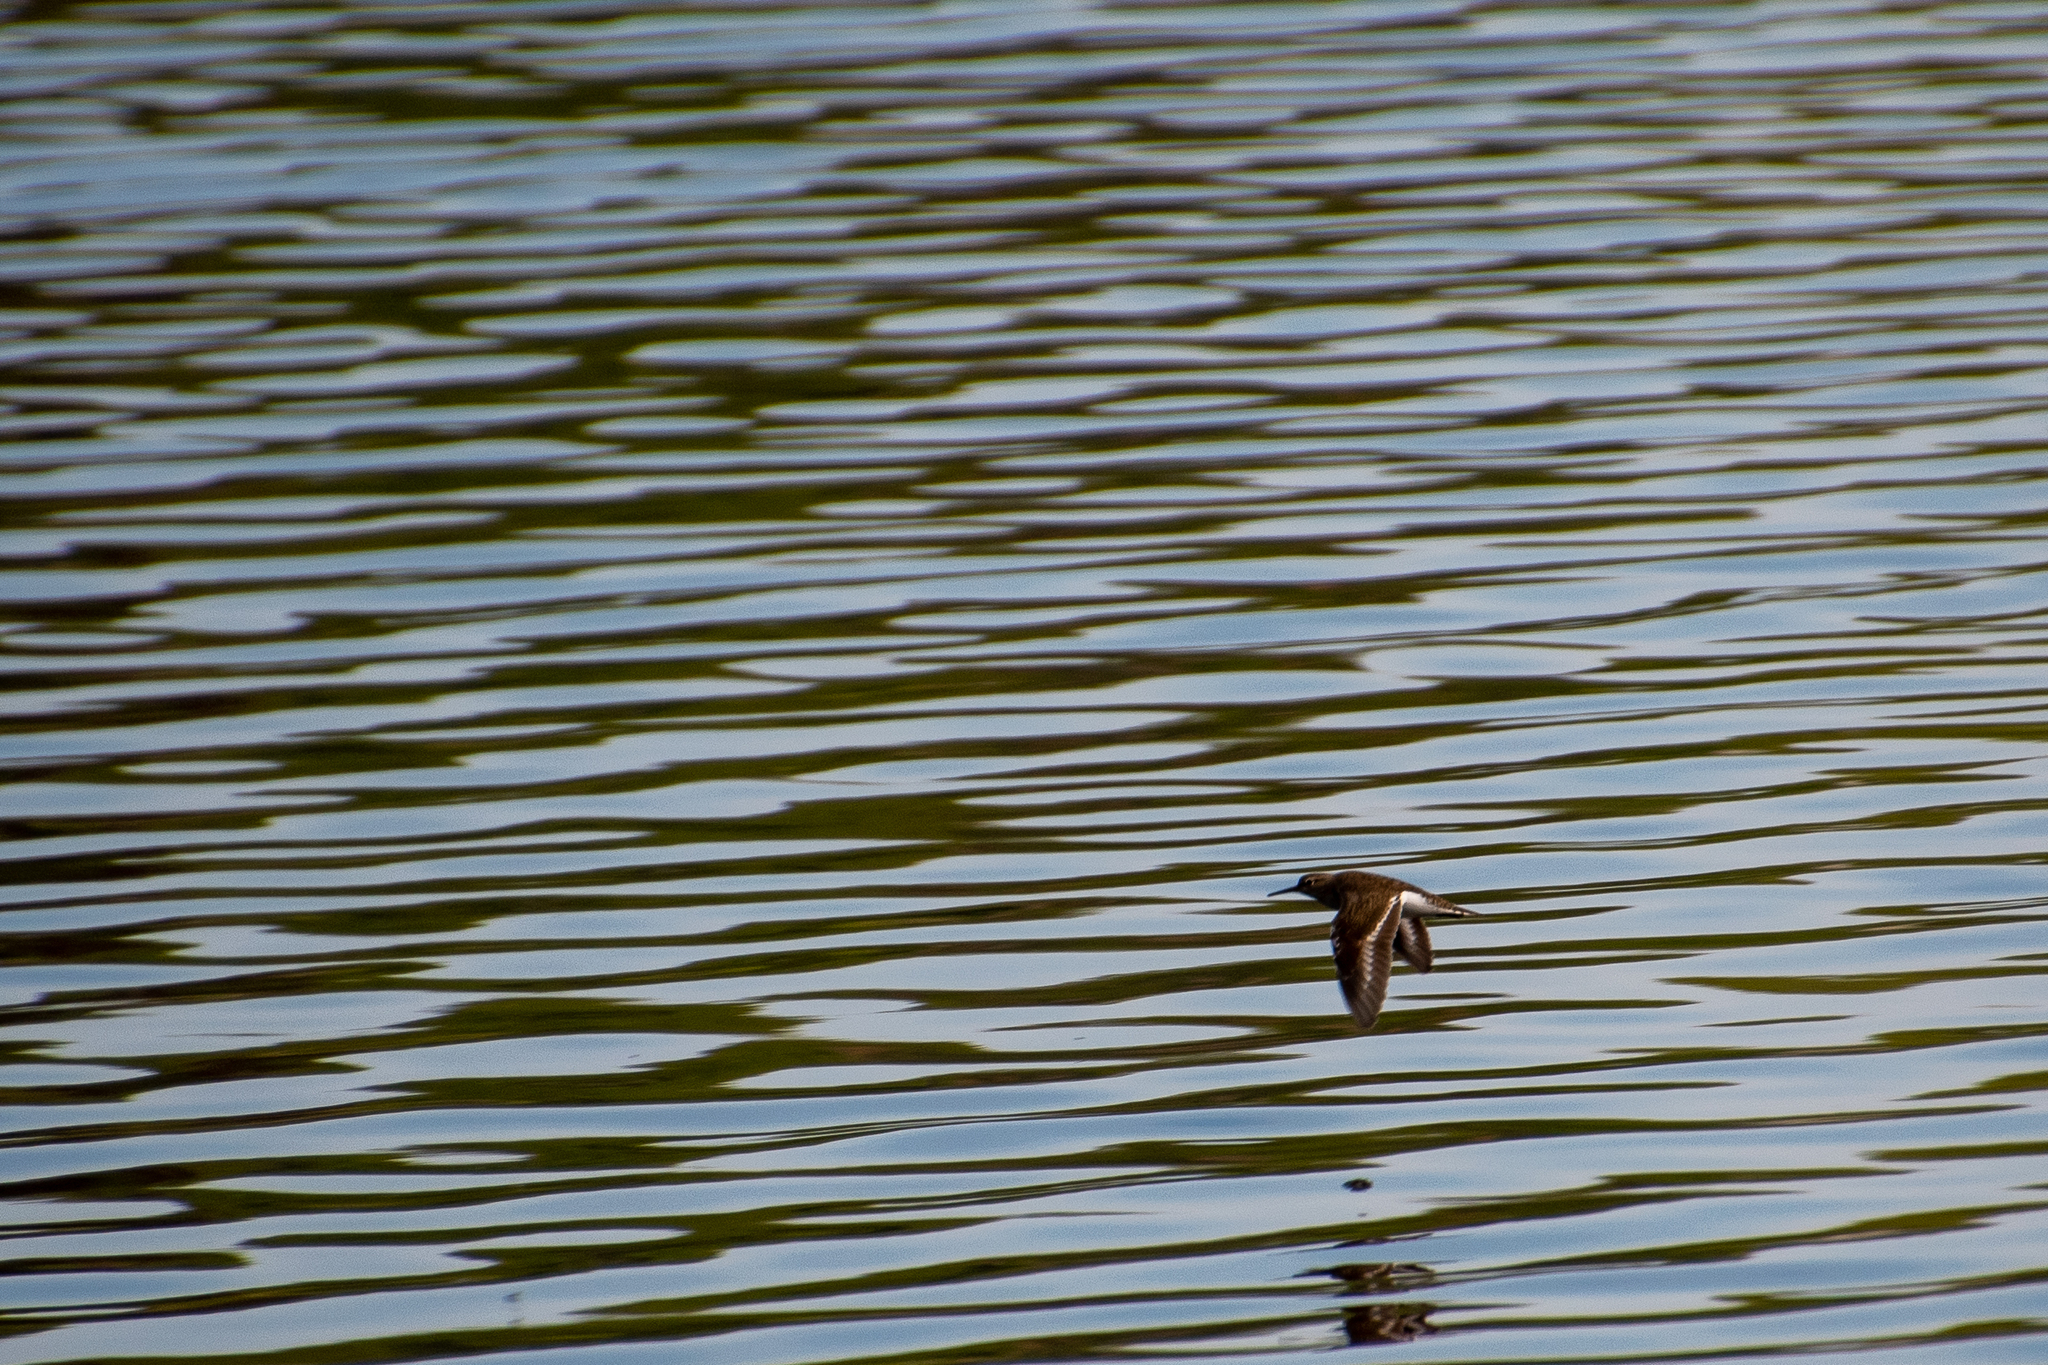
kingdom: Animalia
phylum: Chordata
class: Aves
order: Charadriiformes
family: Scolopacidae
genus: Actitis
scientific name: Actitis hypoleucos
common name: Common sandpiper
